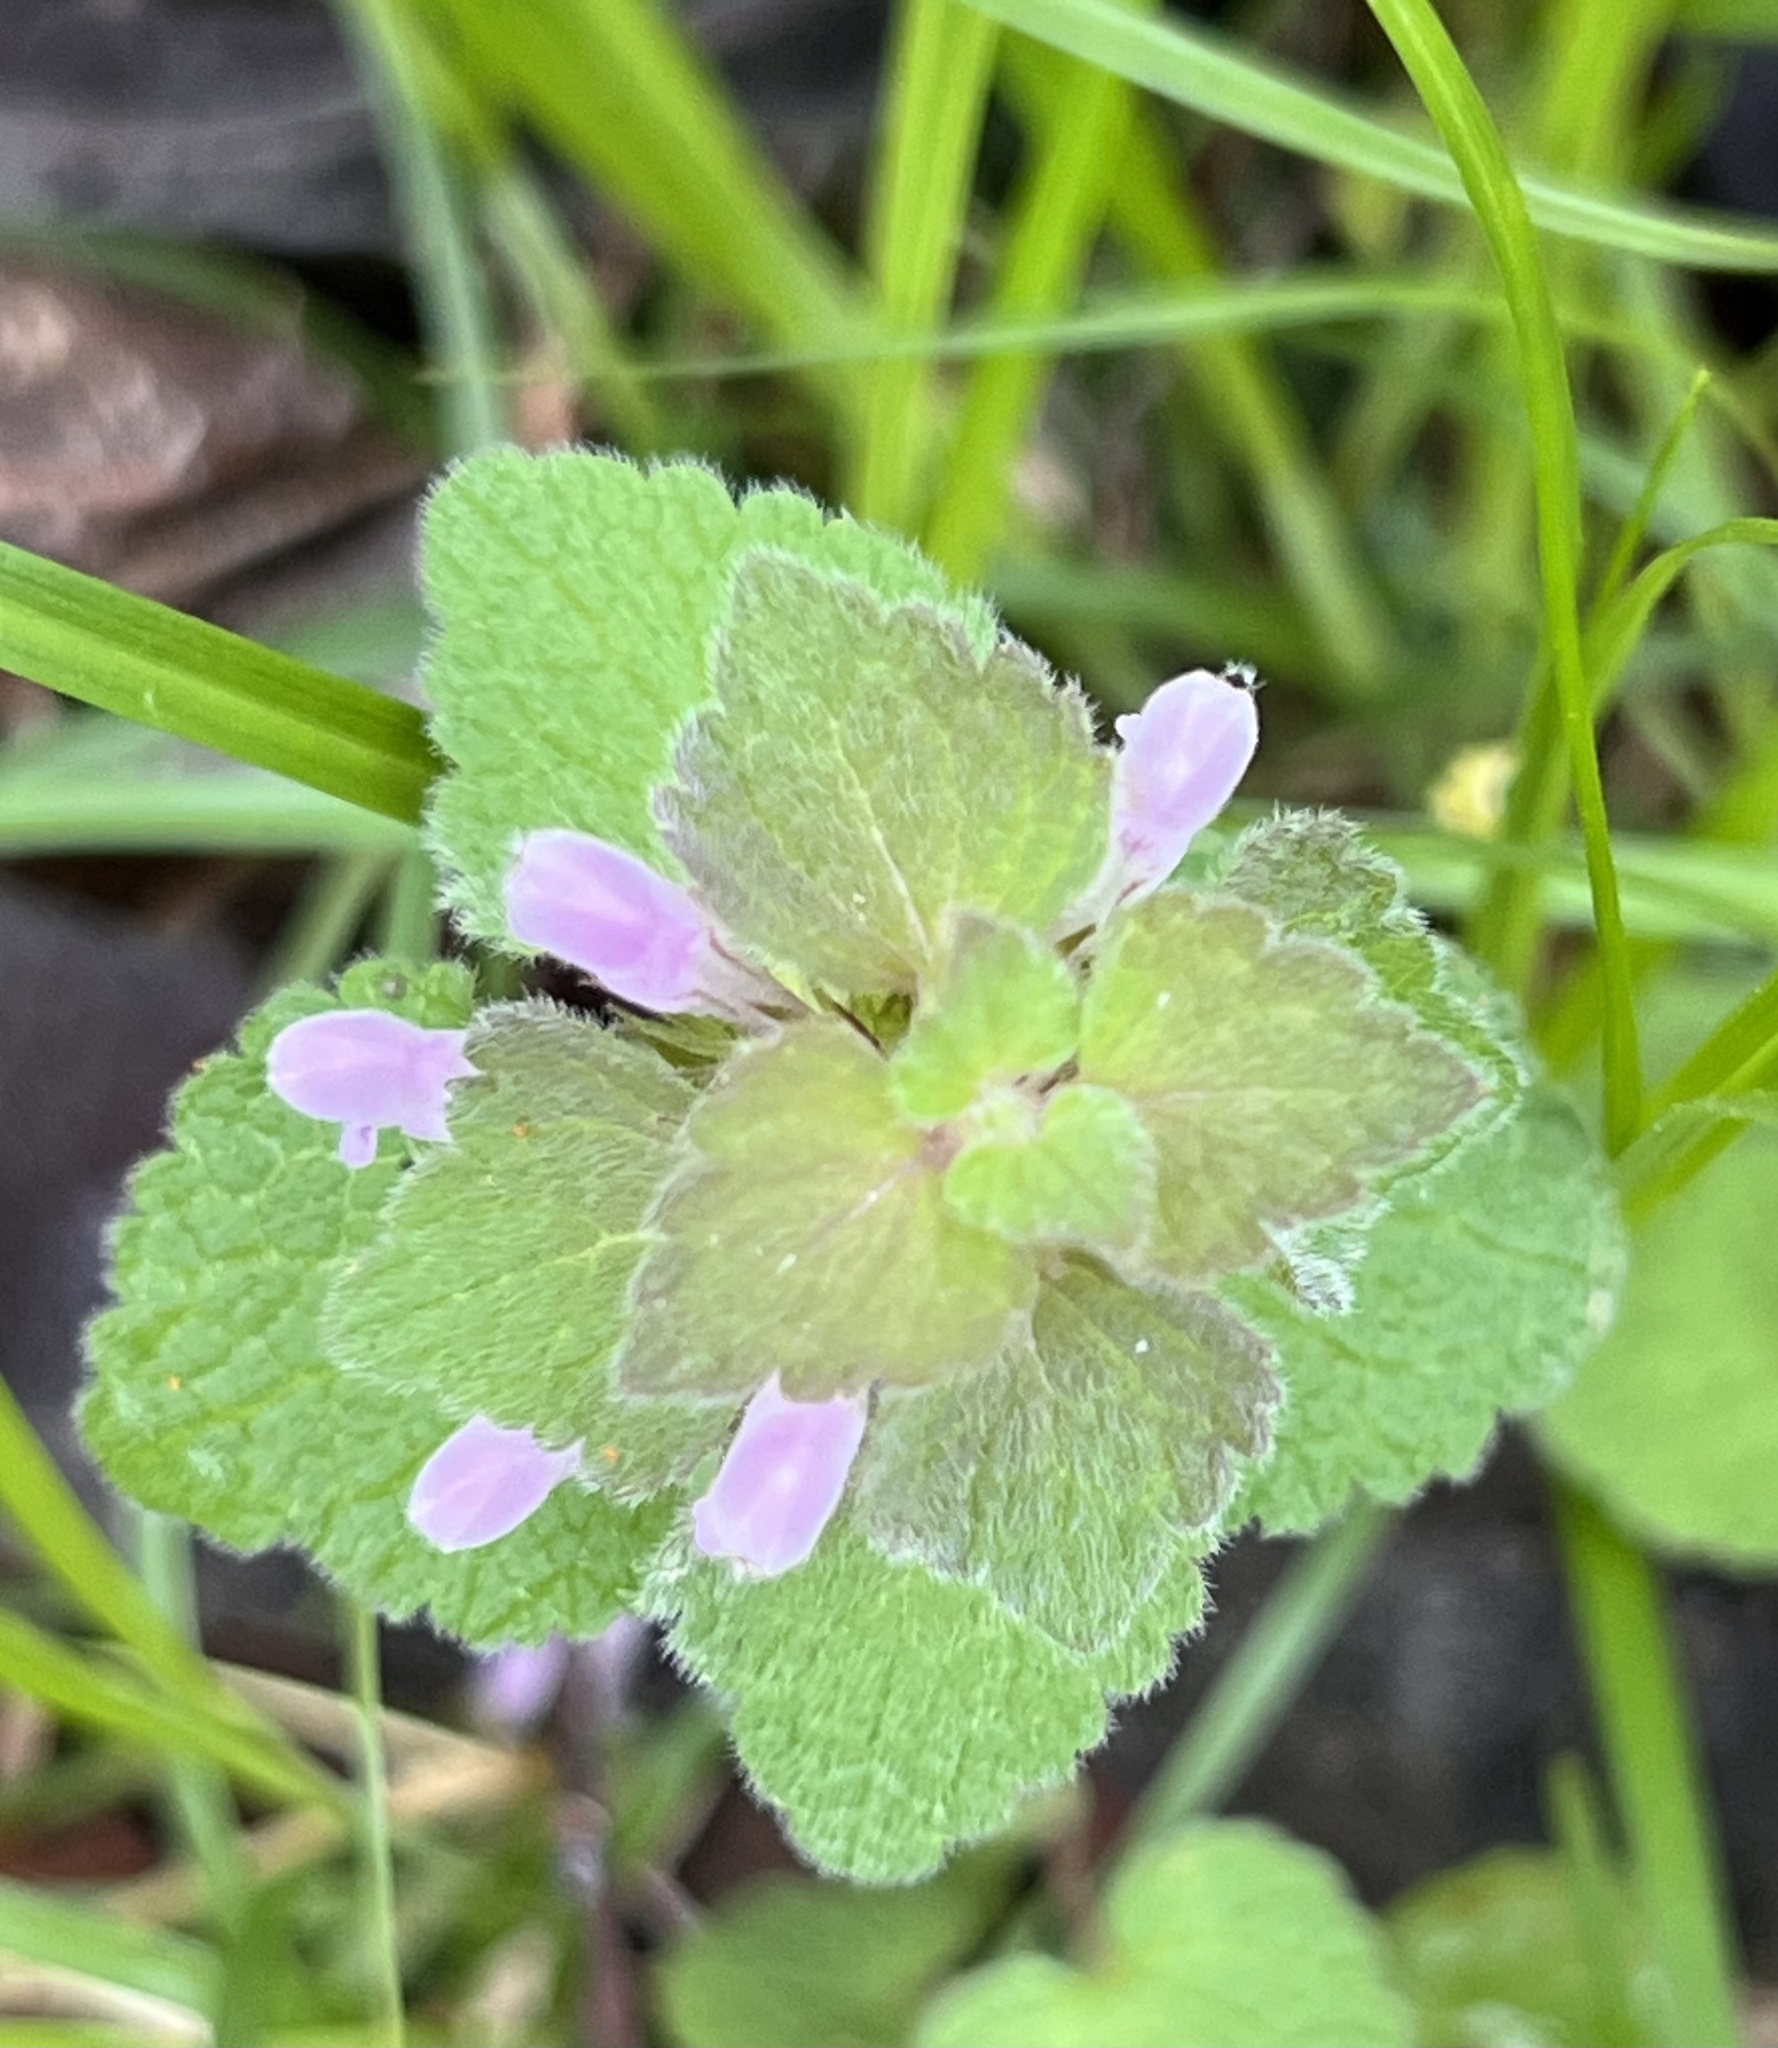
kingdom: Plantae
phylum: Tracheophyta
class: Magnoliopsida
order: Lamiales
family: Lamiaceae
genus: Lamium
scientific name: Lamium purpureum
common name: Red dead-nettle
